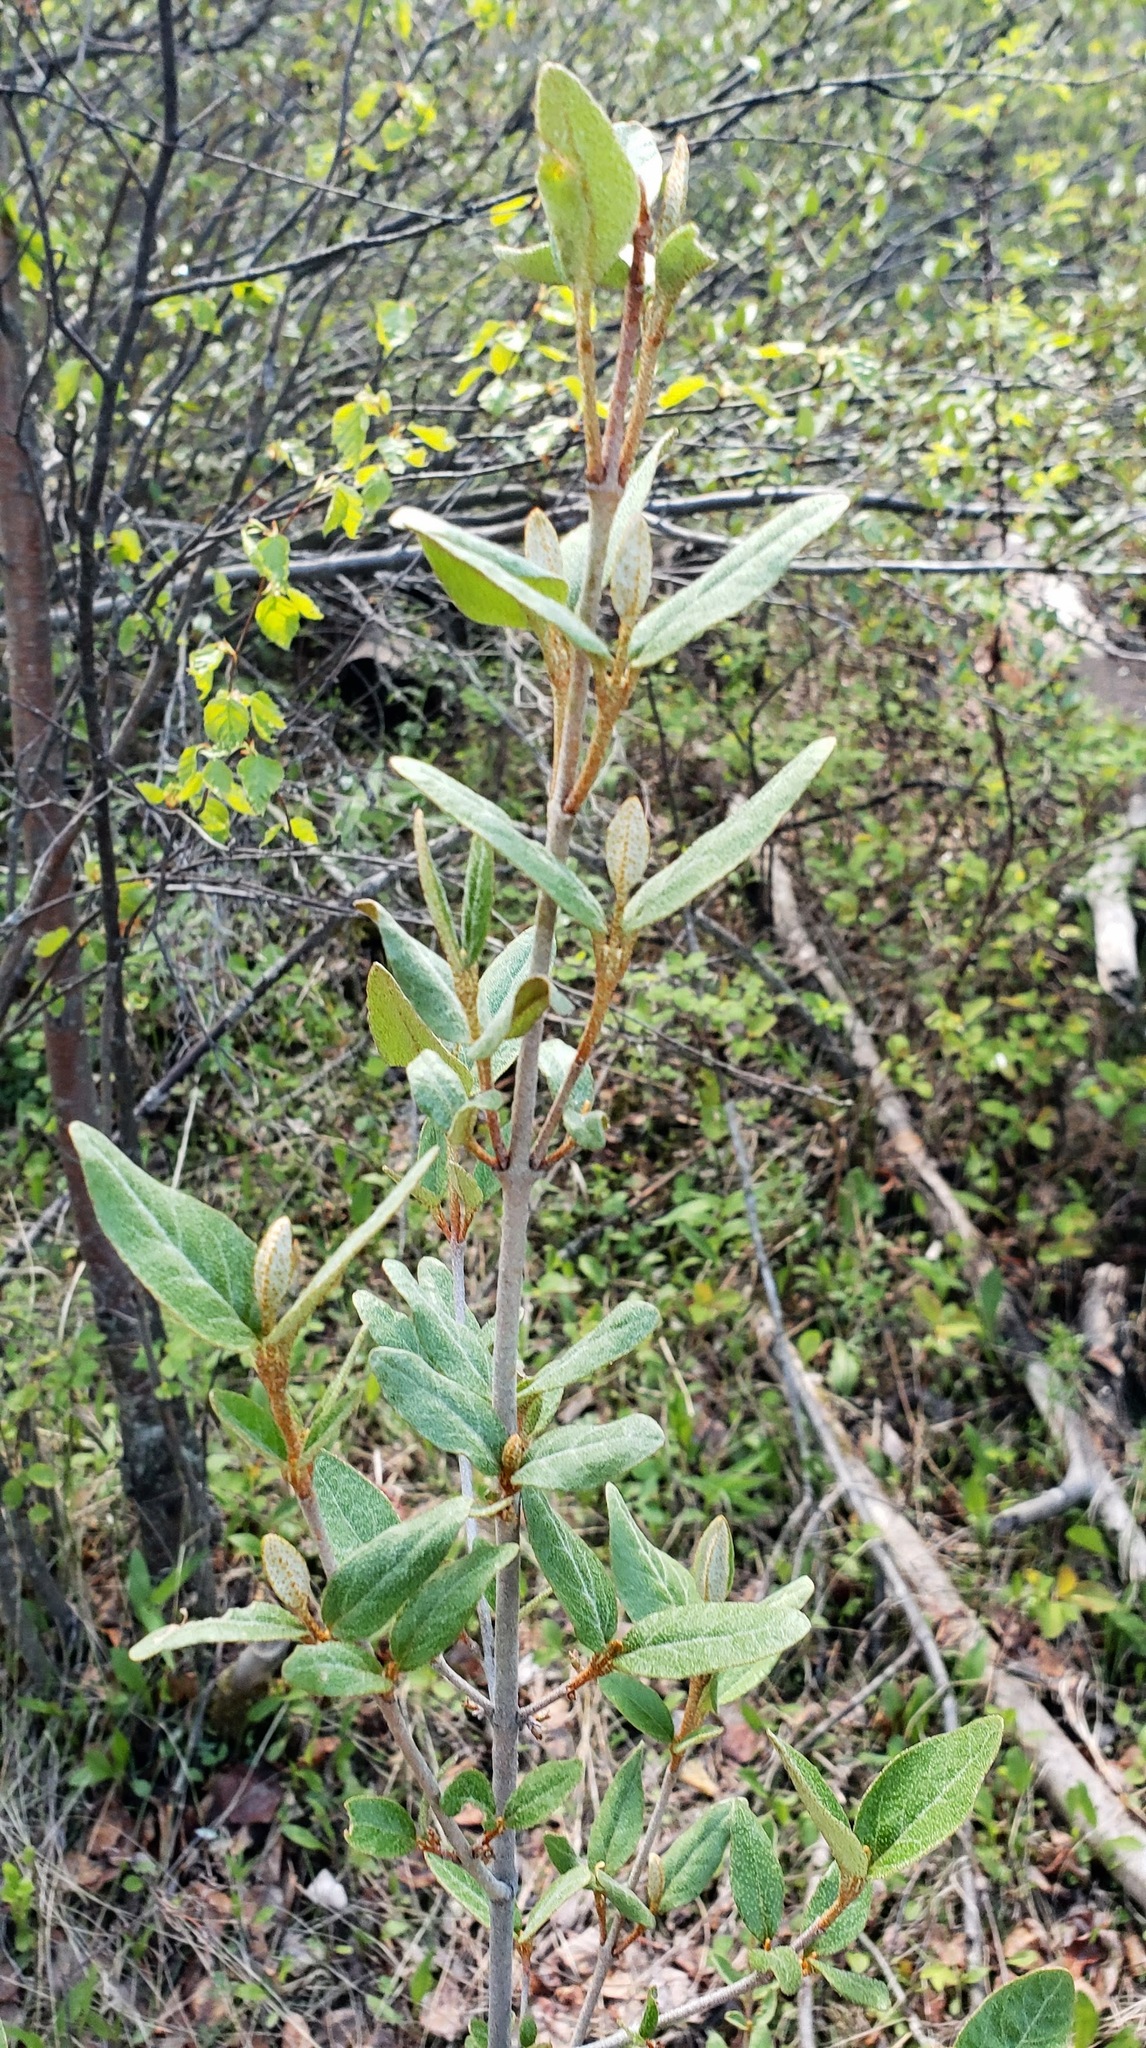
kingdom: Plantae
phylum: Tracheophyta
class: Magnoliopsida
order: Rosales
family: Elaeagnaceae
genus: Shepherdia
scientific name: Shepherdia canadensis
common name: Soapberry
